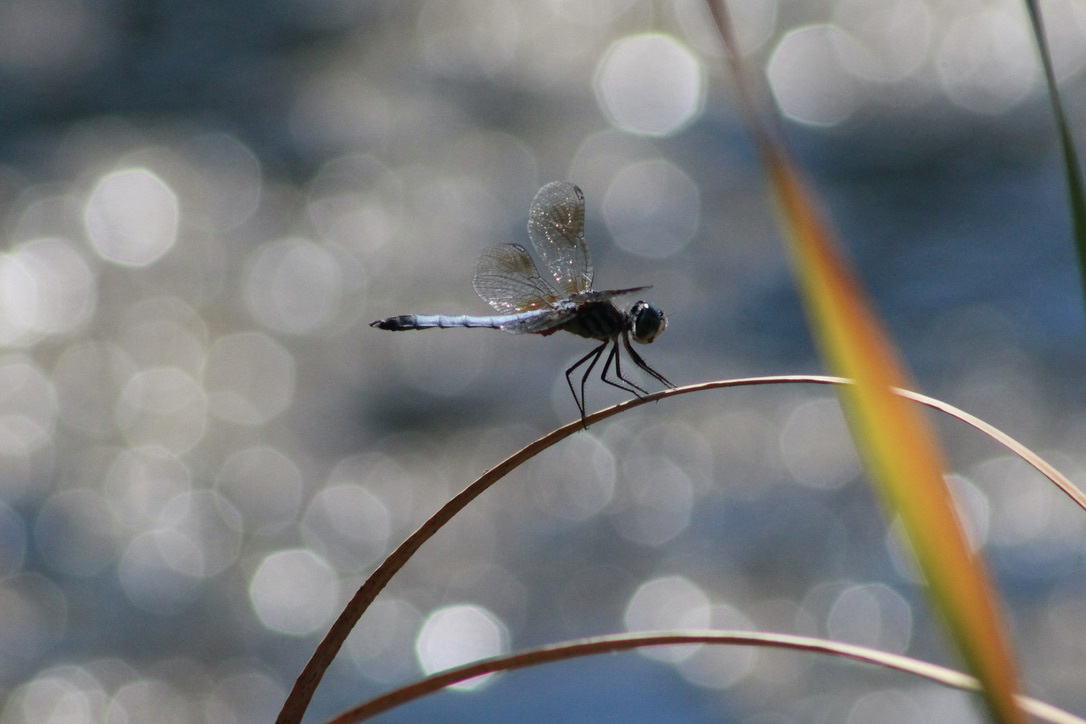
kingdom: Animalia
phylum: Arthropoda
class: Insecta
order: Odonata
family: Libellulidae
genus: Pachydiplax
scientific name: Pachydiplax longipennis
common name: Blue dasher
